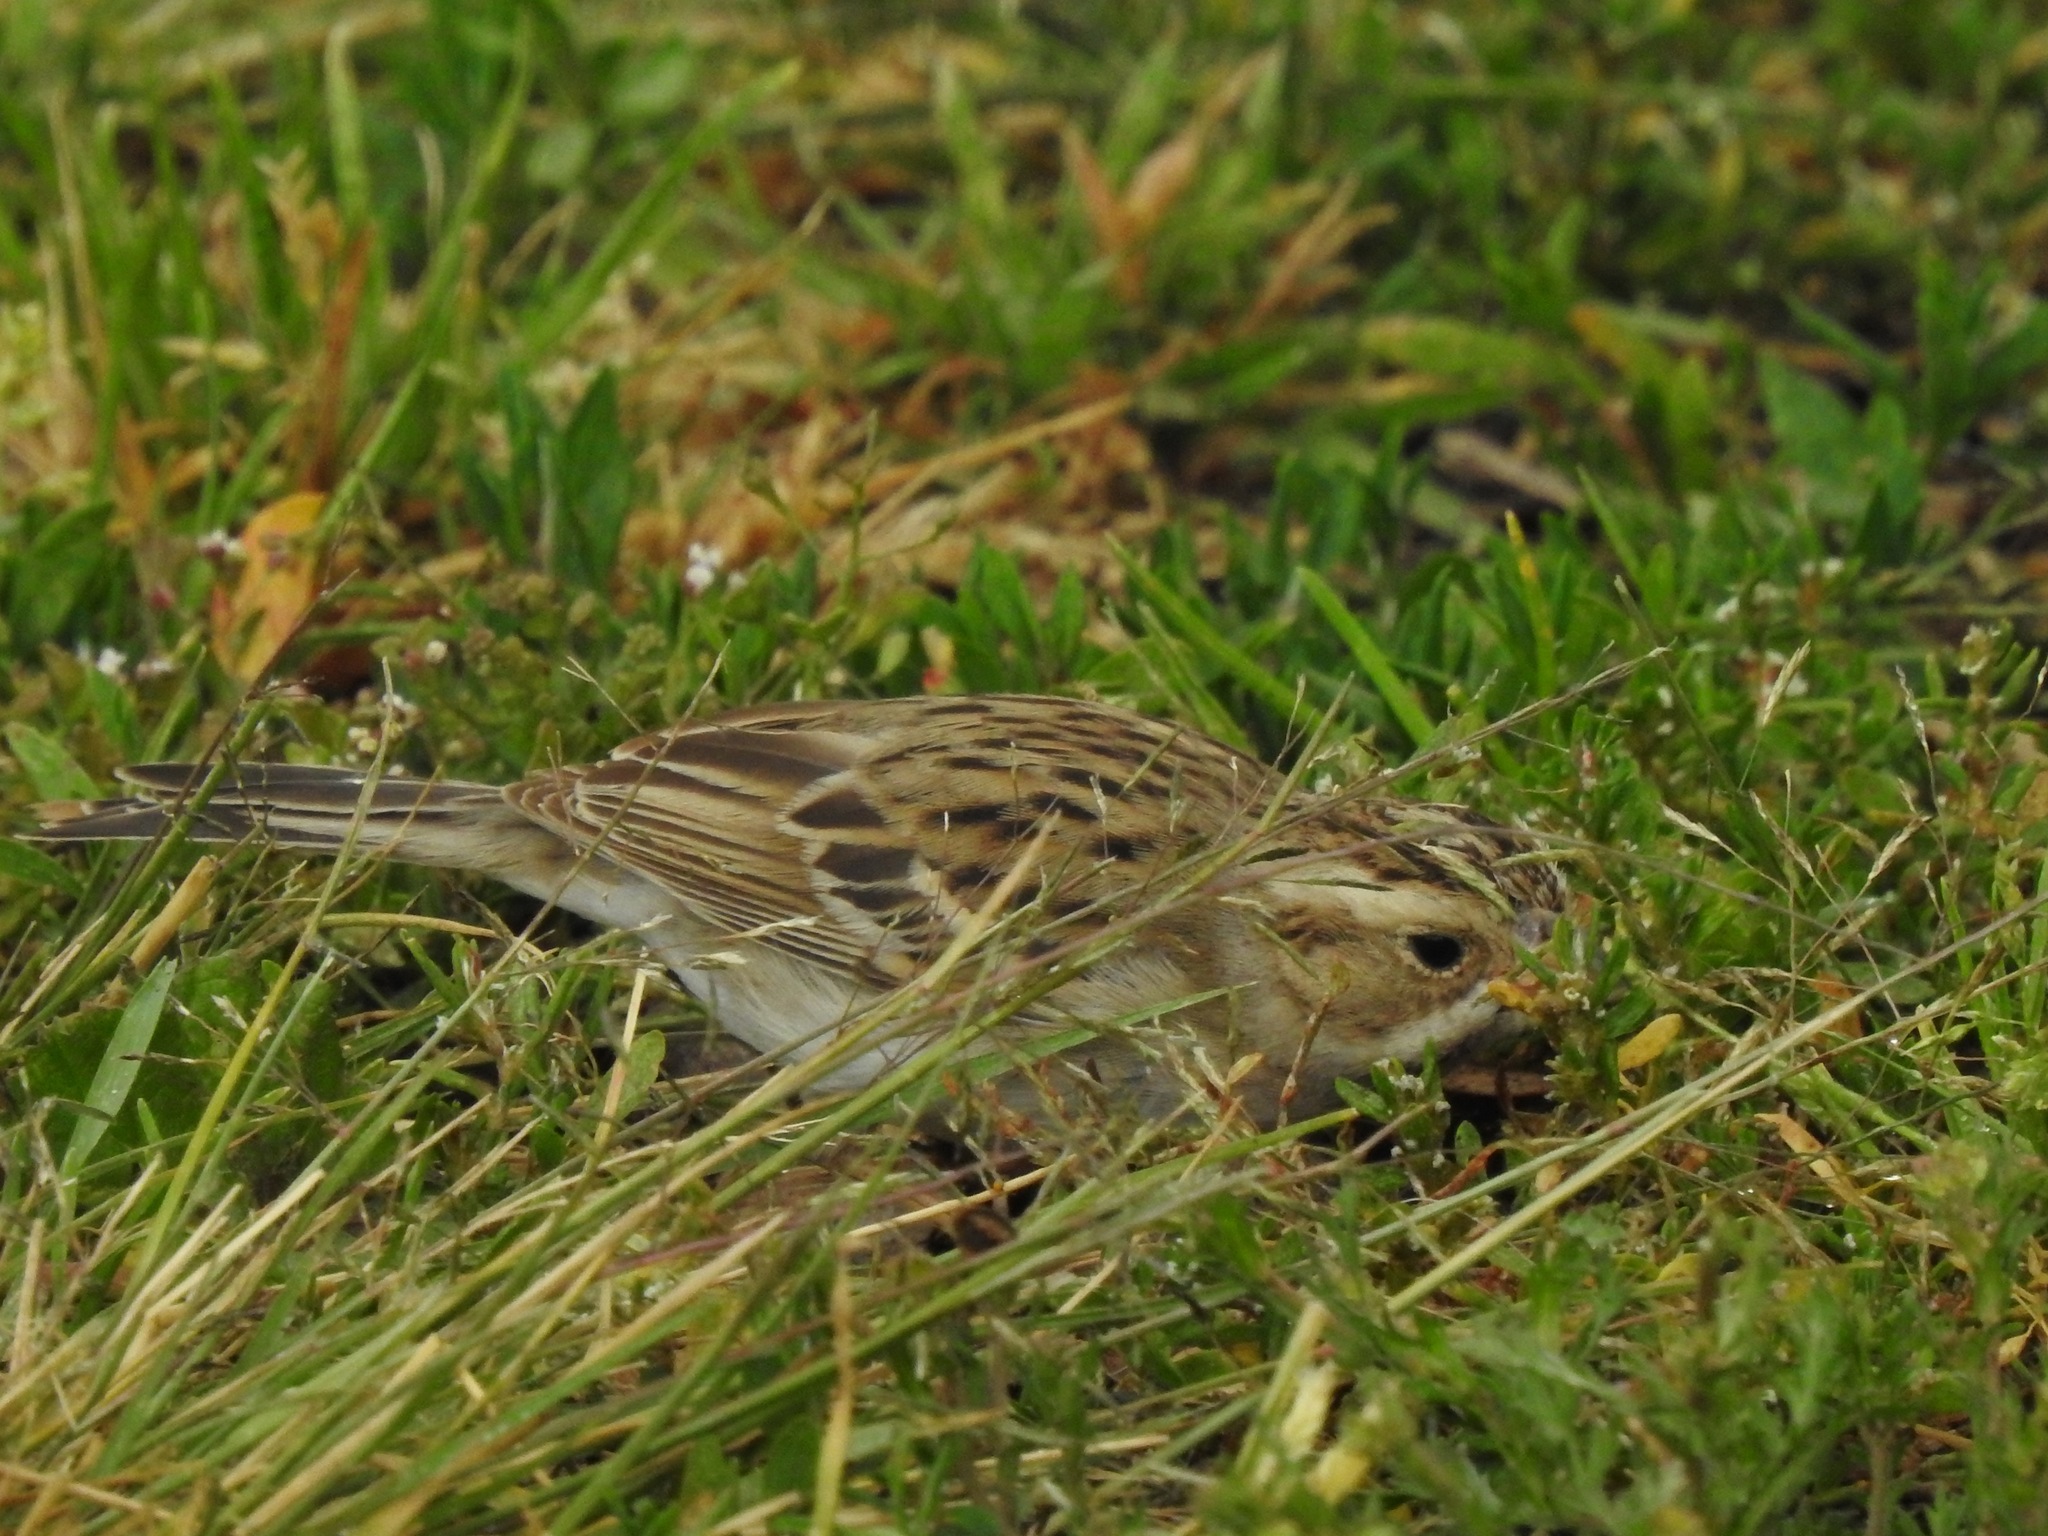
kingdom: Animalia
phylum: Chordata
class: Aves
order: Passeriformes
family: Passerellidae
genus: Spizella
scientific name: Spizella pallida
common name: Clay-colored sparrow
